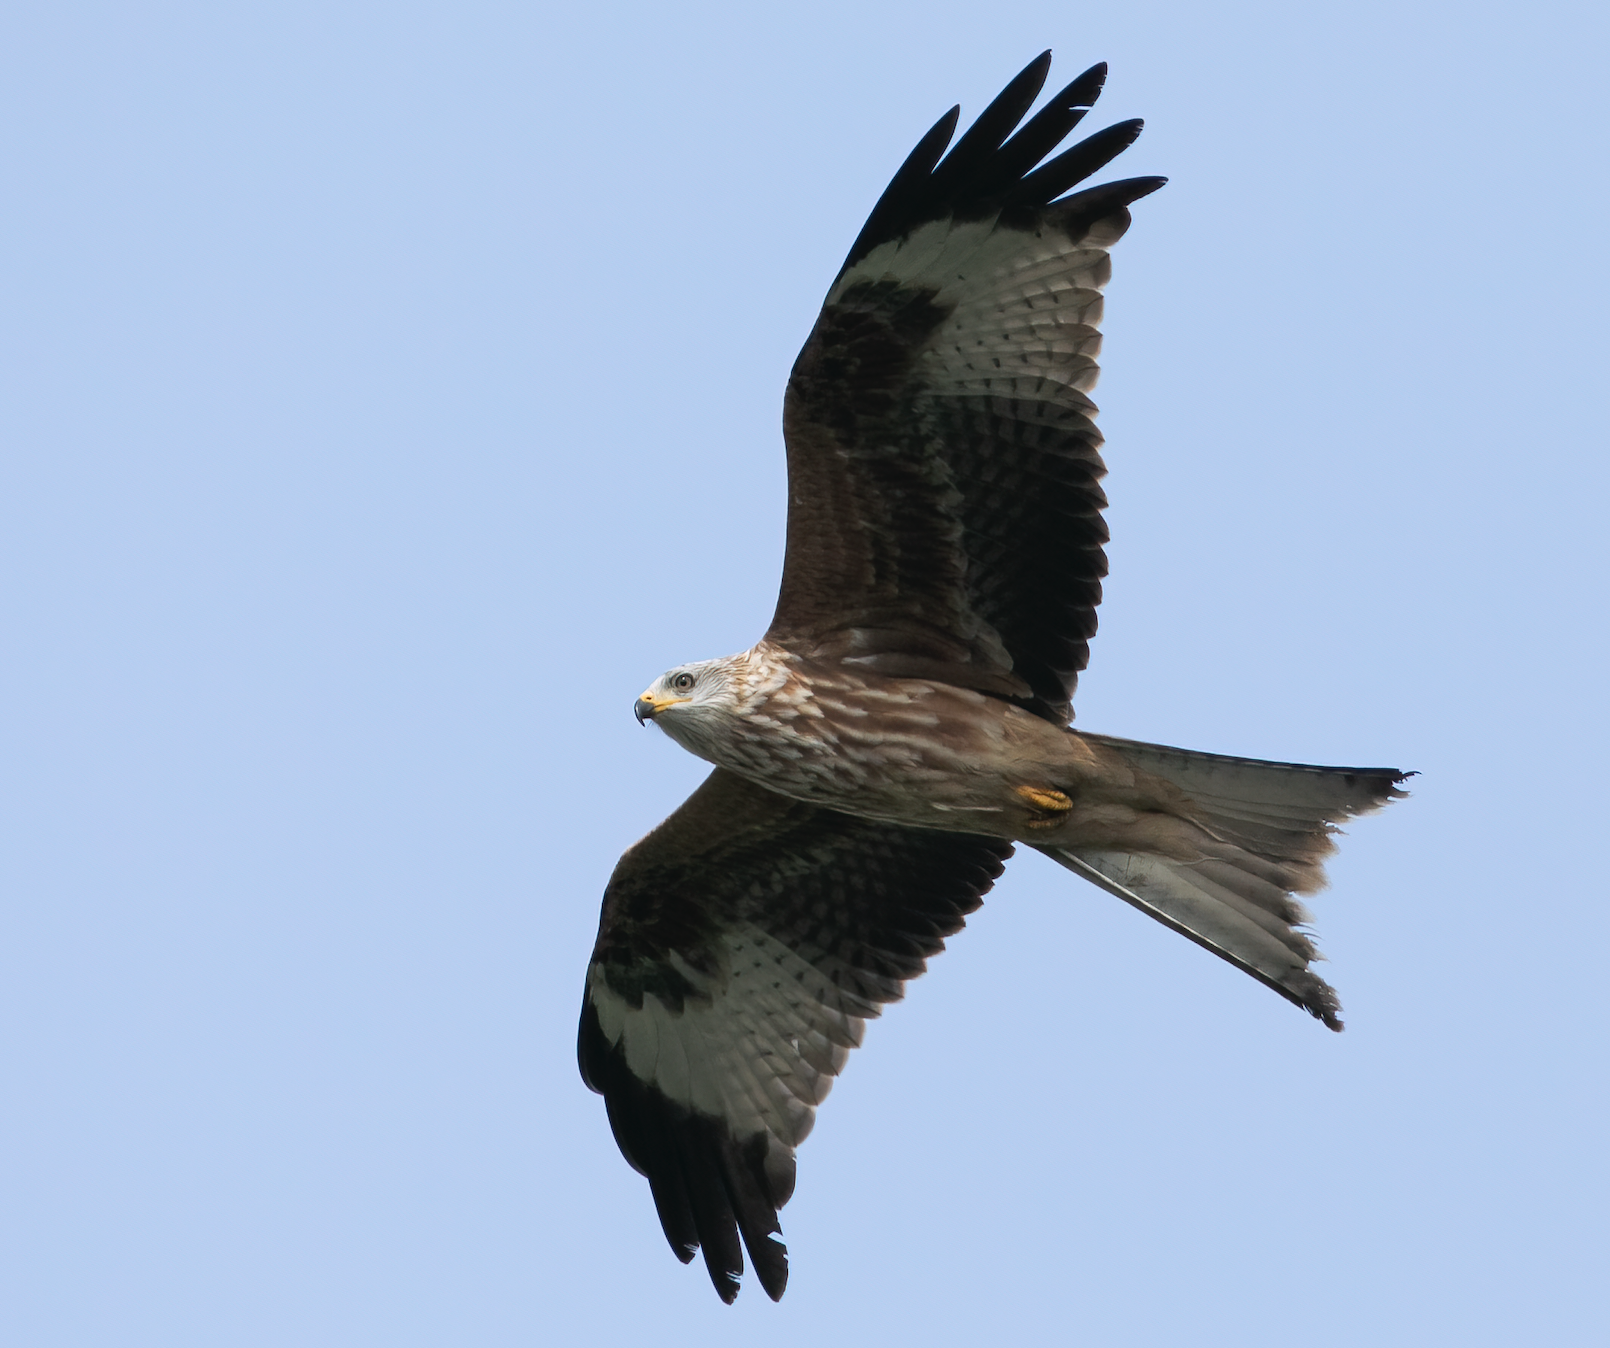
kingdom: Animalia
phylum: Chordata
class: Aves
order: Accipitriformes
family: Accipitridae
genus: Milvus
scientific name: Milvus milvus
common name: Red kite
